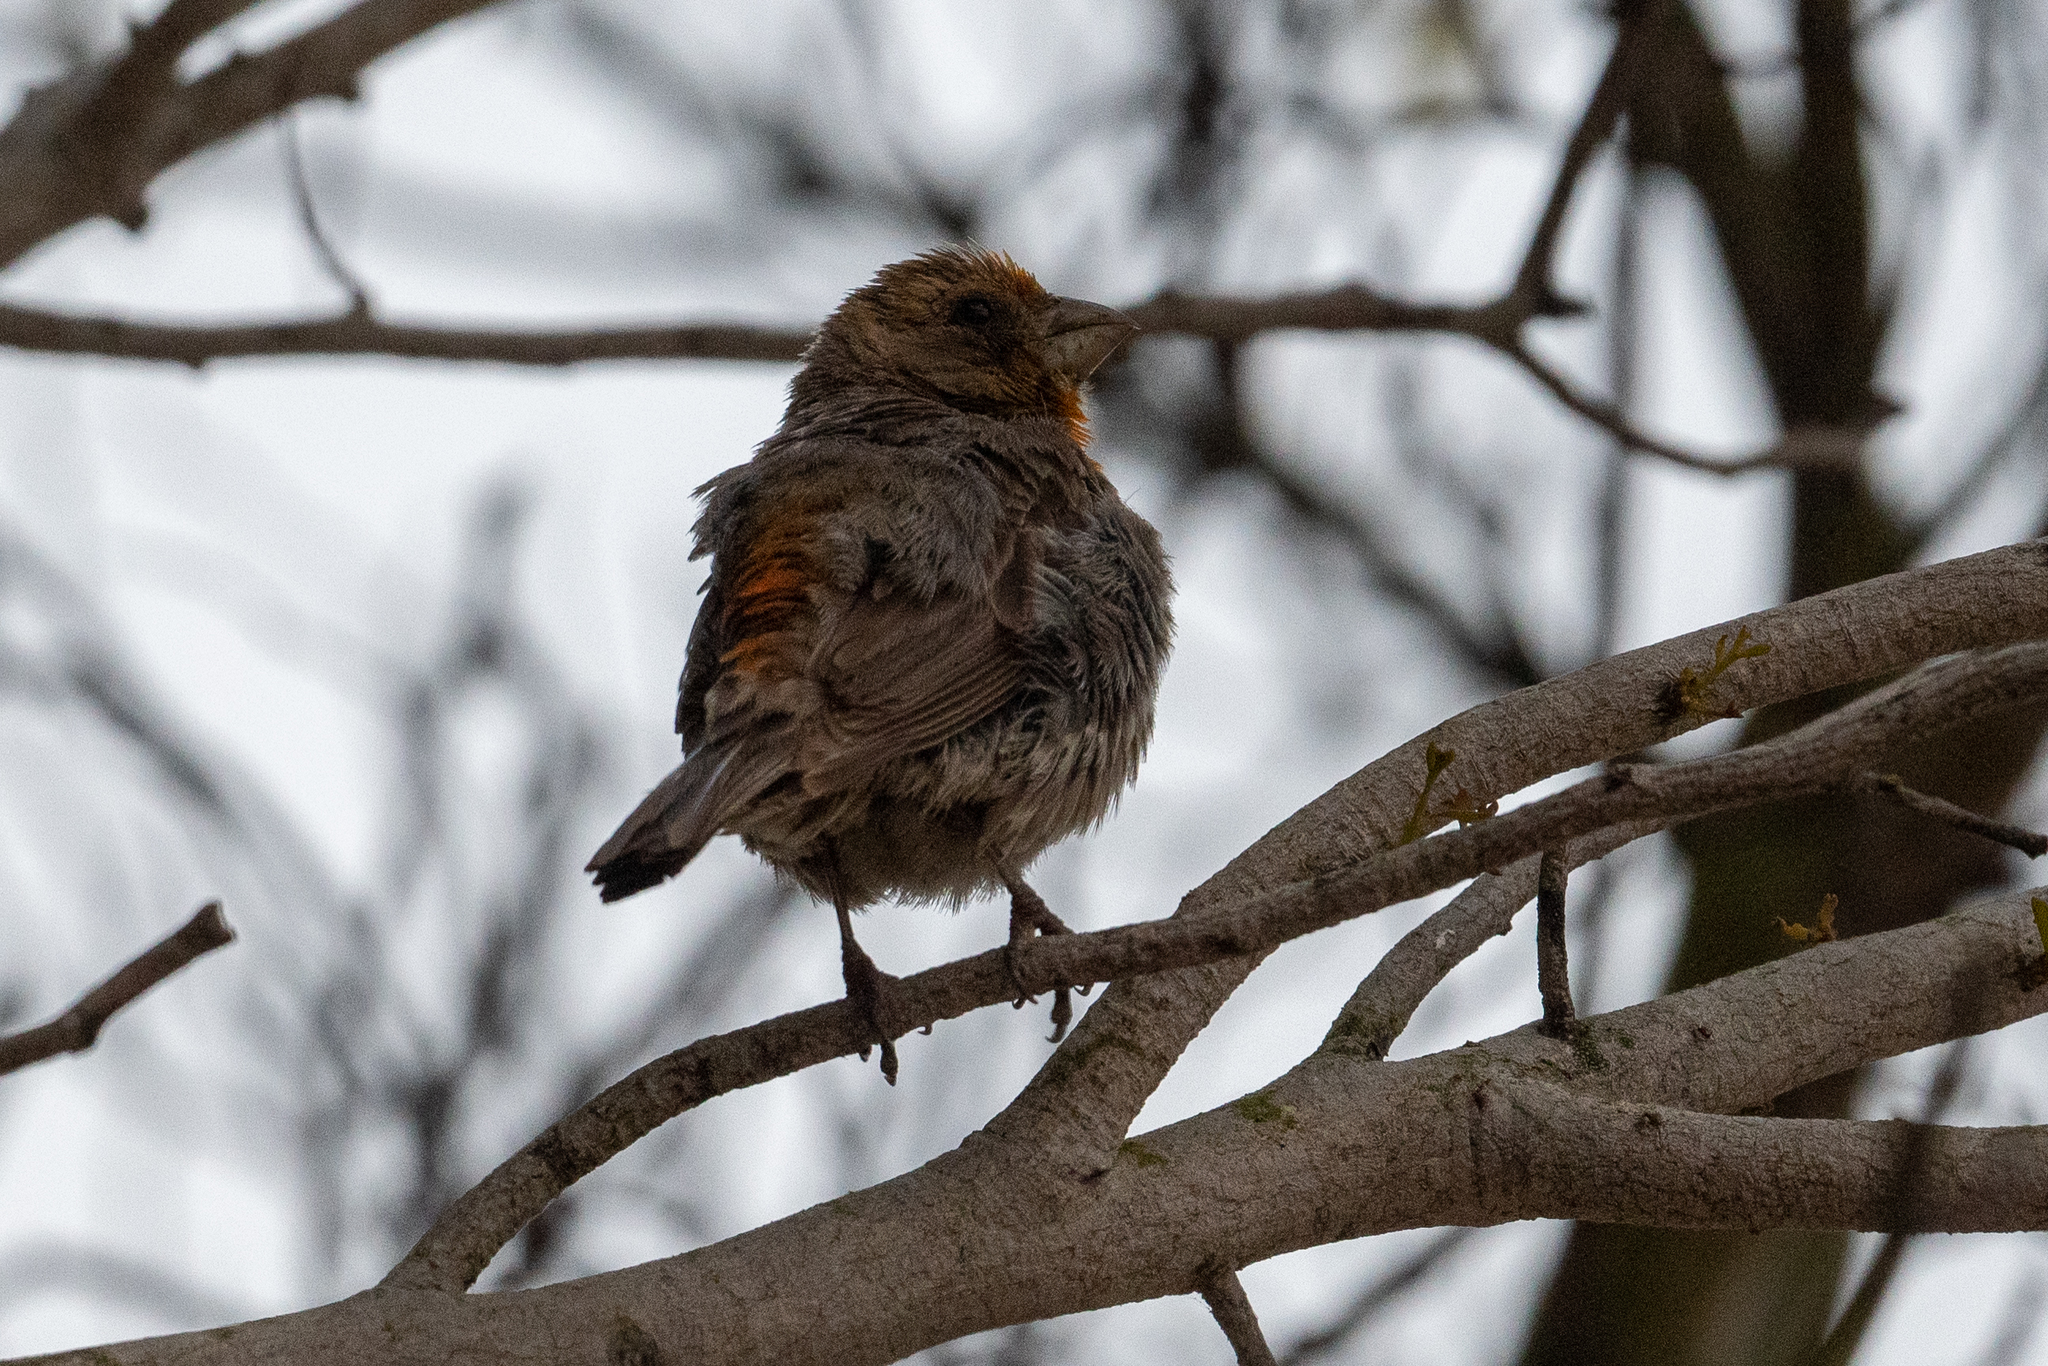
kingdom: Animalia
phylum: Chordata
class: Aves
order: Passeriformes
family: Fringillidae
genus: Haemorhous
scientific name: Haemorhous mexicanus
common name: House finch
